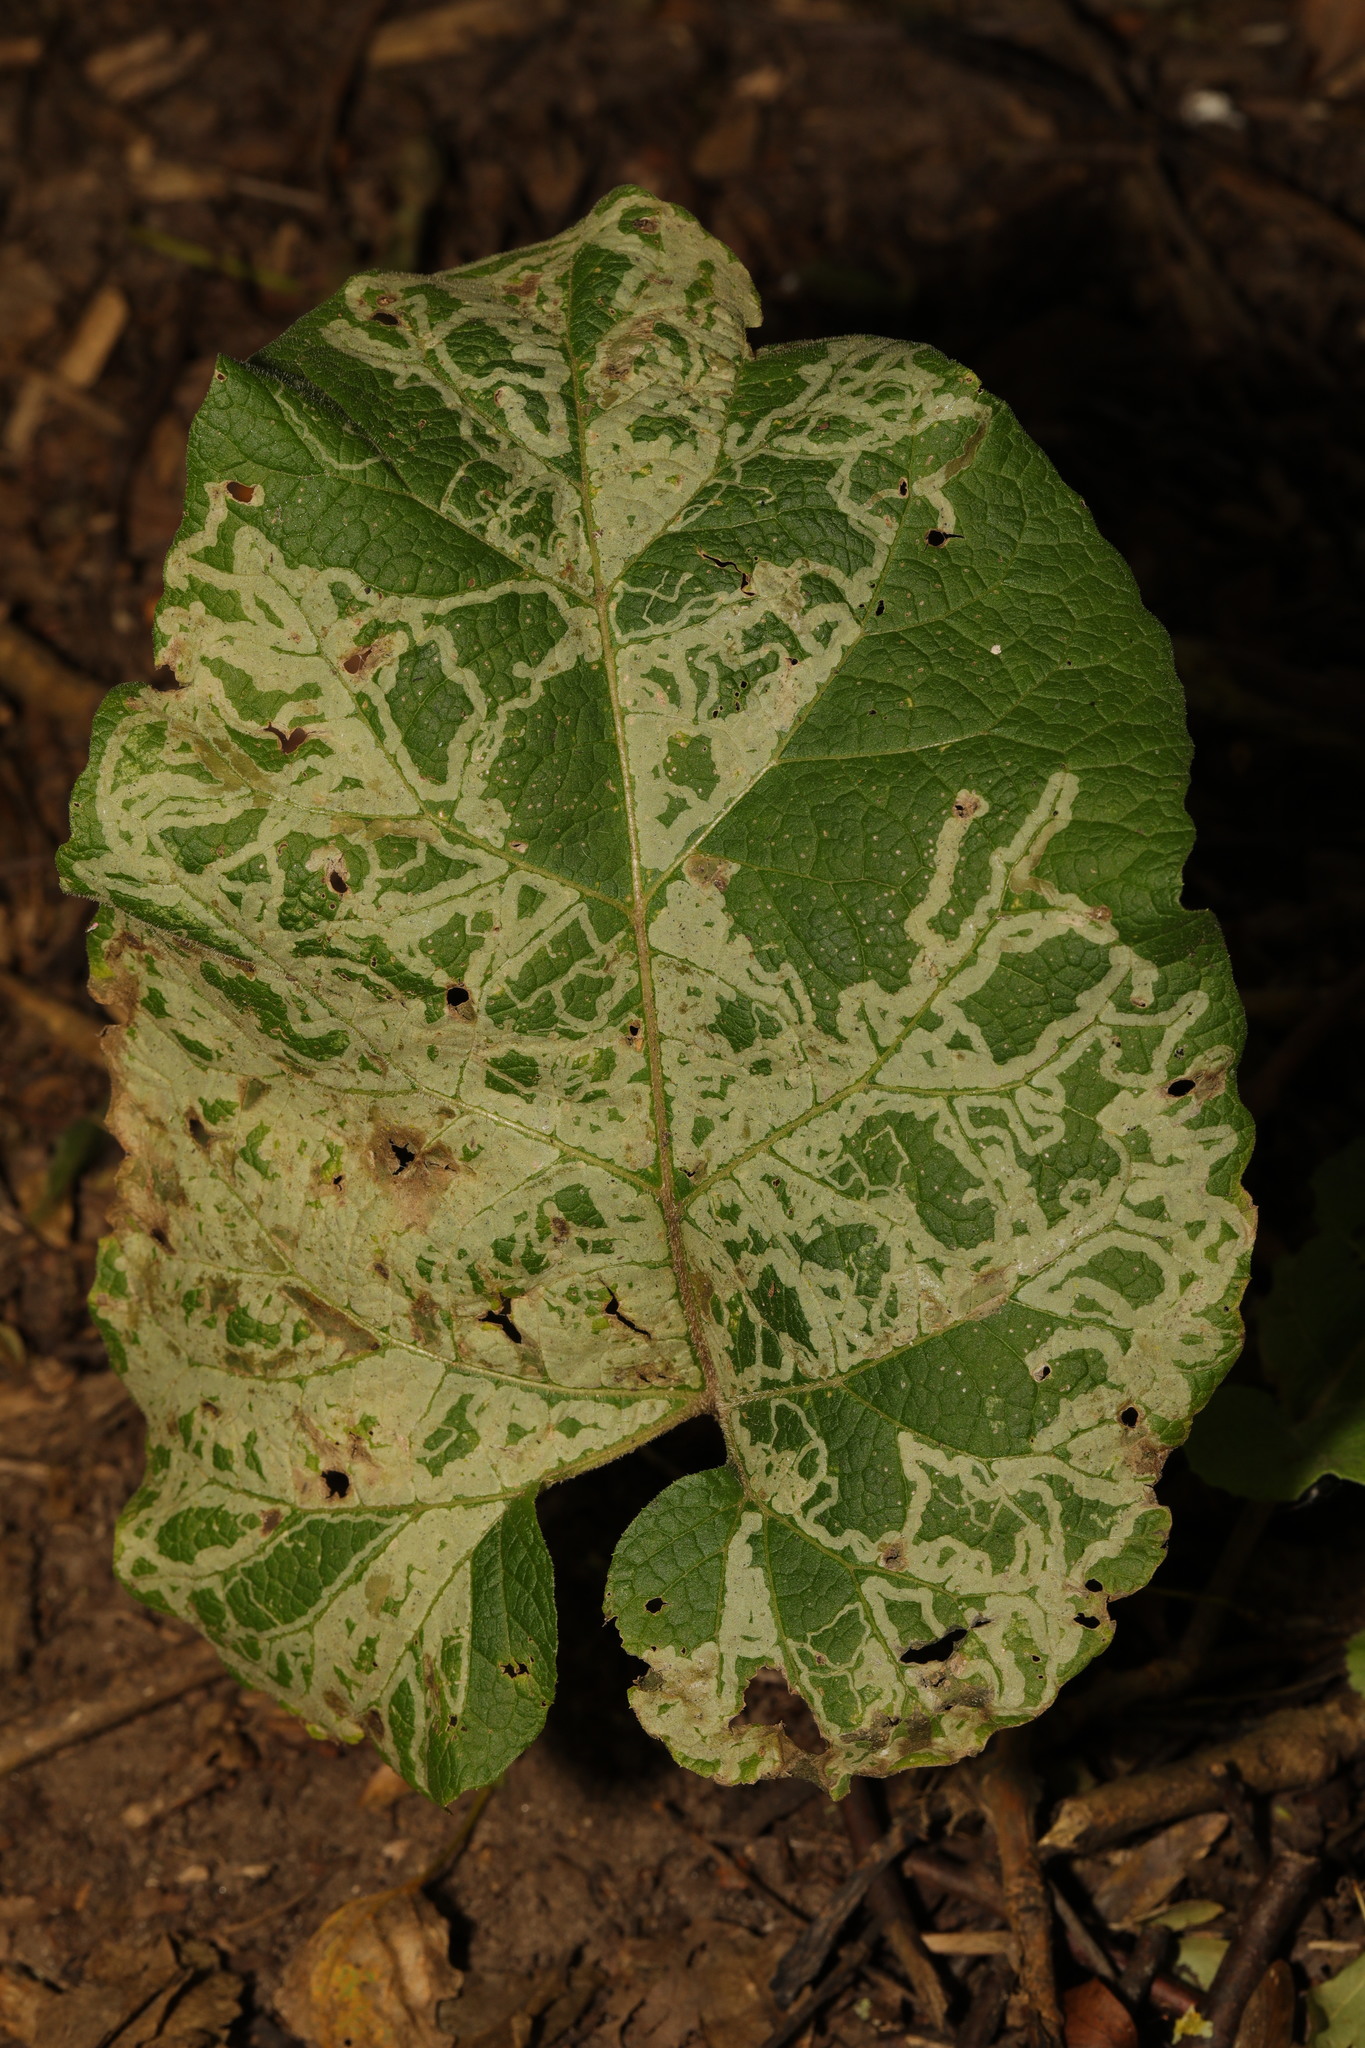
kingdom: Animalia
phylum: Arthropoda
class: Insecta
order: Diptera
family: Agromyzidae
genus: Phytomyza
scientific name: Phytomyza lappae
